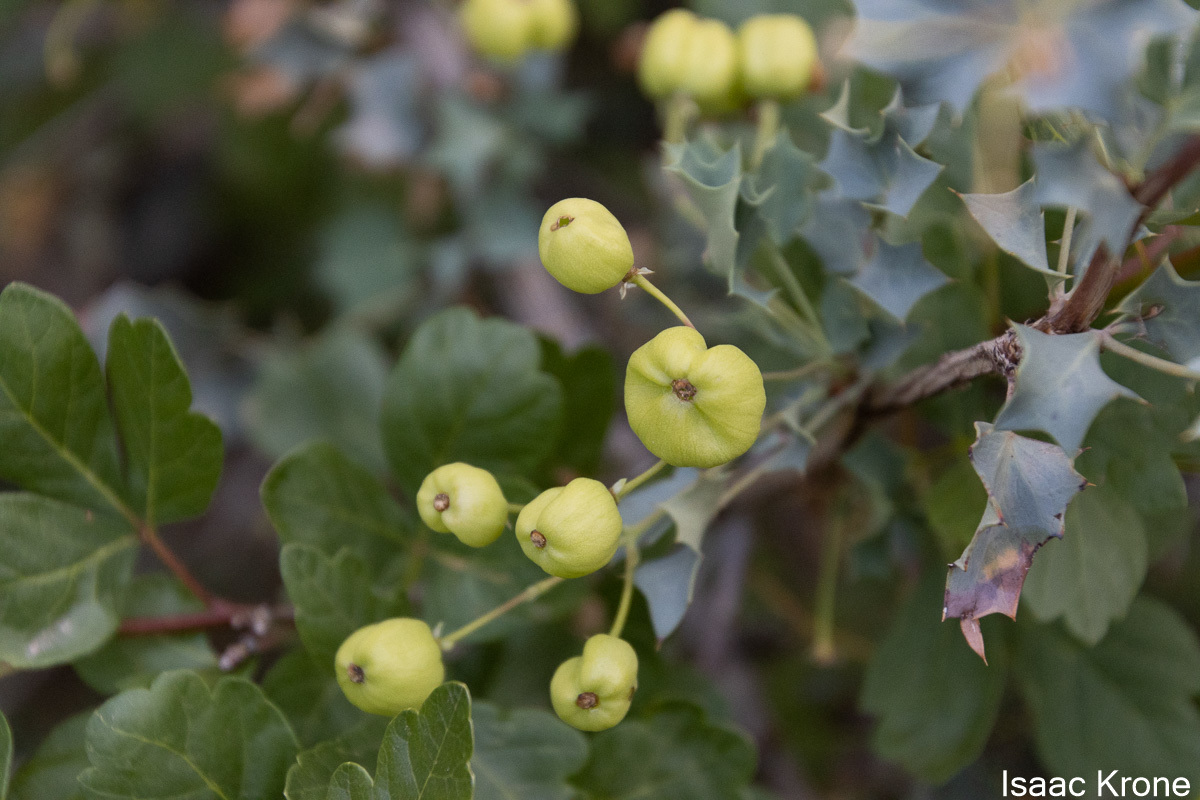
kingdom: Plantae
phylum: Tracheophyta
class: Magnoliopsida
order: Ranunculales
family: Berberidaceae
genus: Alloberberis
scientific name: Alloberberis fremontii
